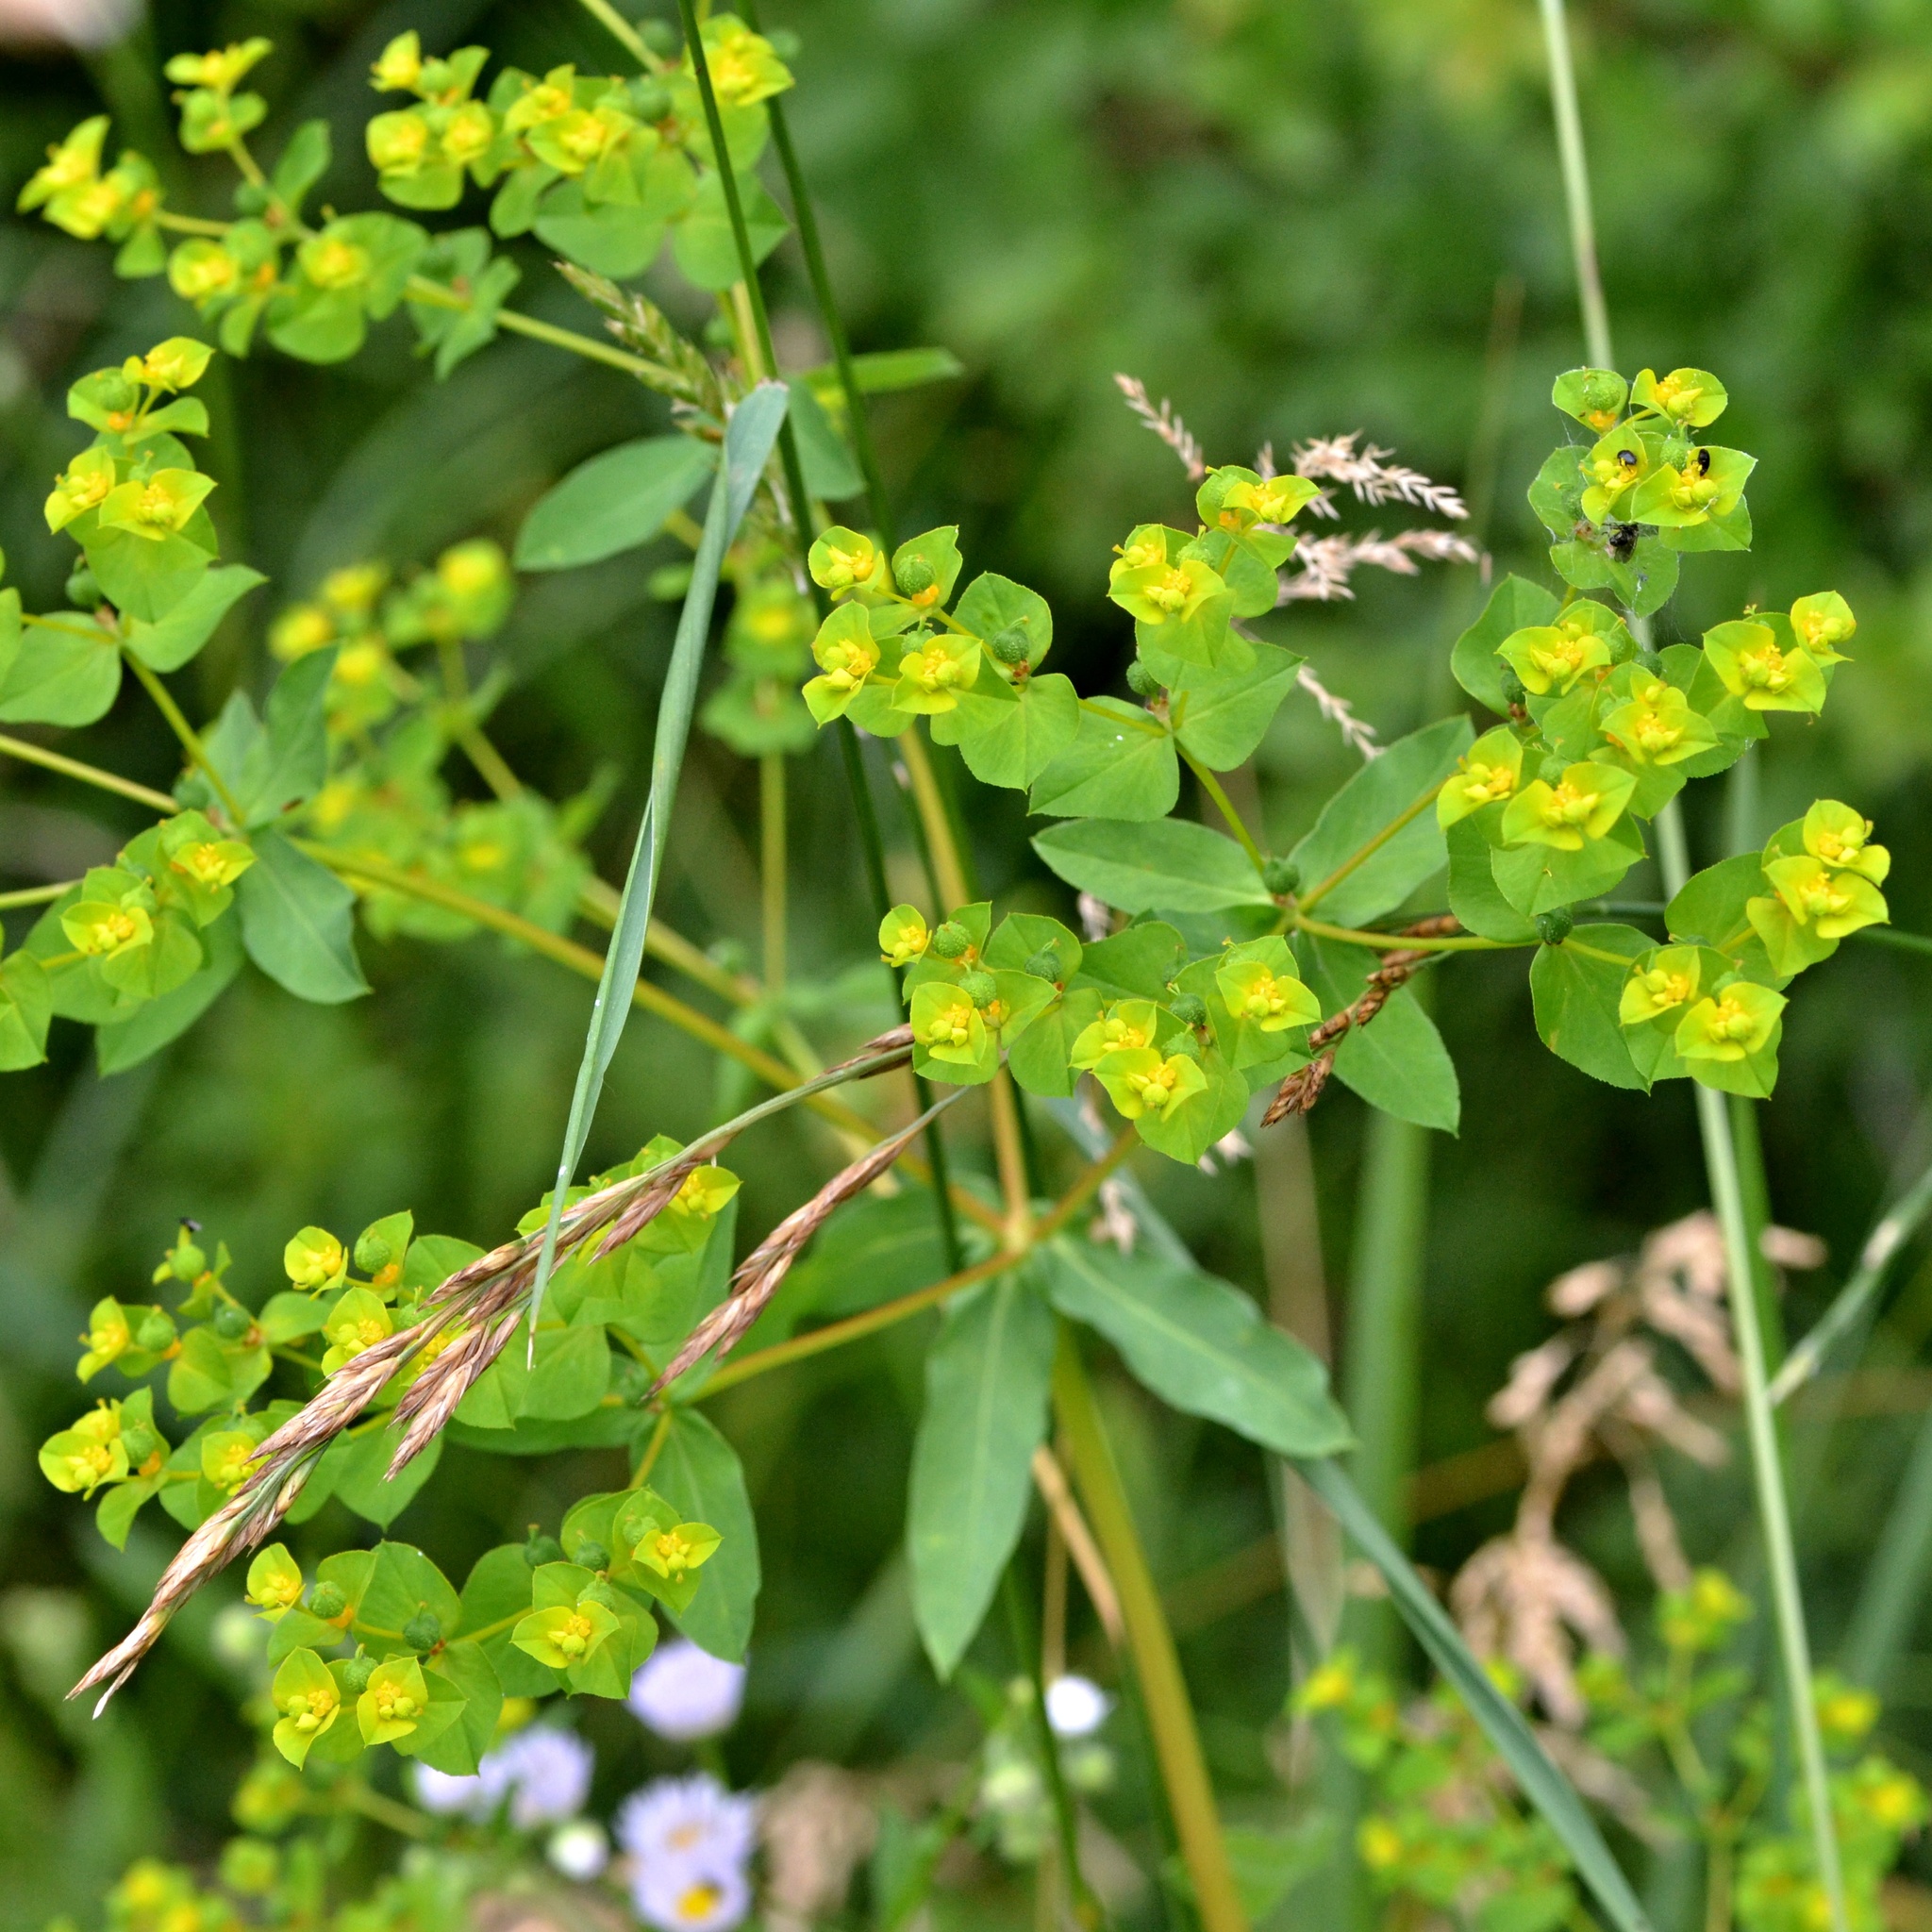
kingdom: Plantae
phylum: Tracheophyta
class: Magnoliopsida
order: Malpighiales
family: Euphorbiaceae
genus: Euphorbia
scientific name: Euphorbia stricta
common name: Upright spurge
